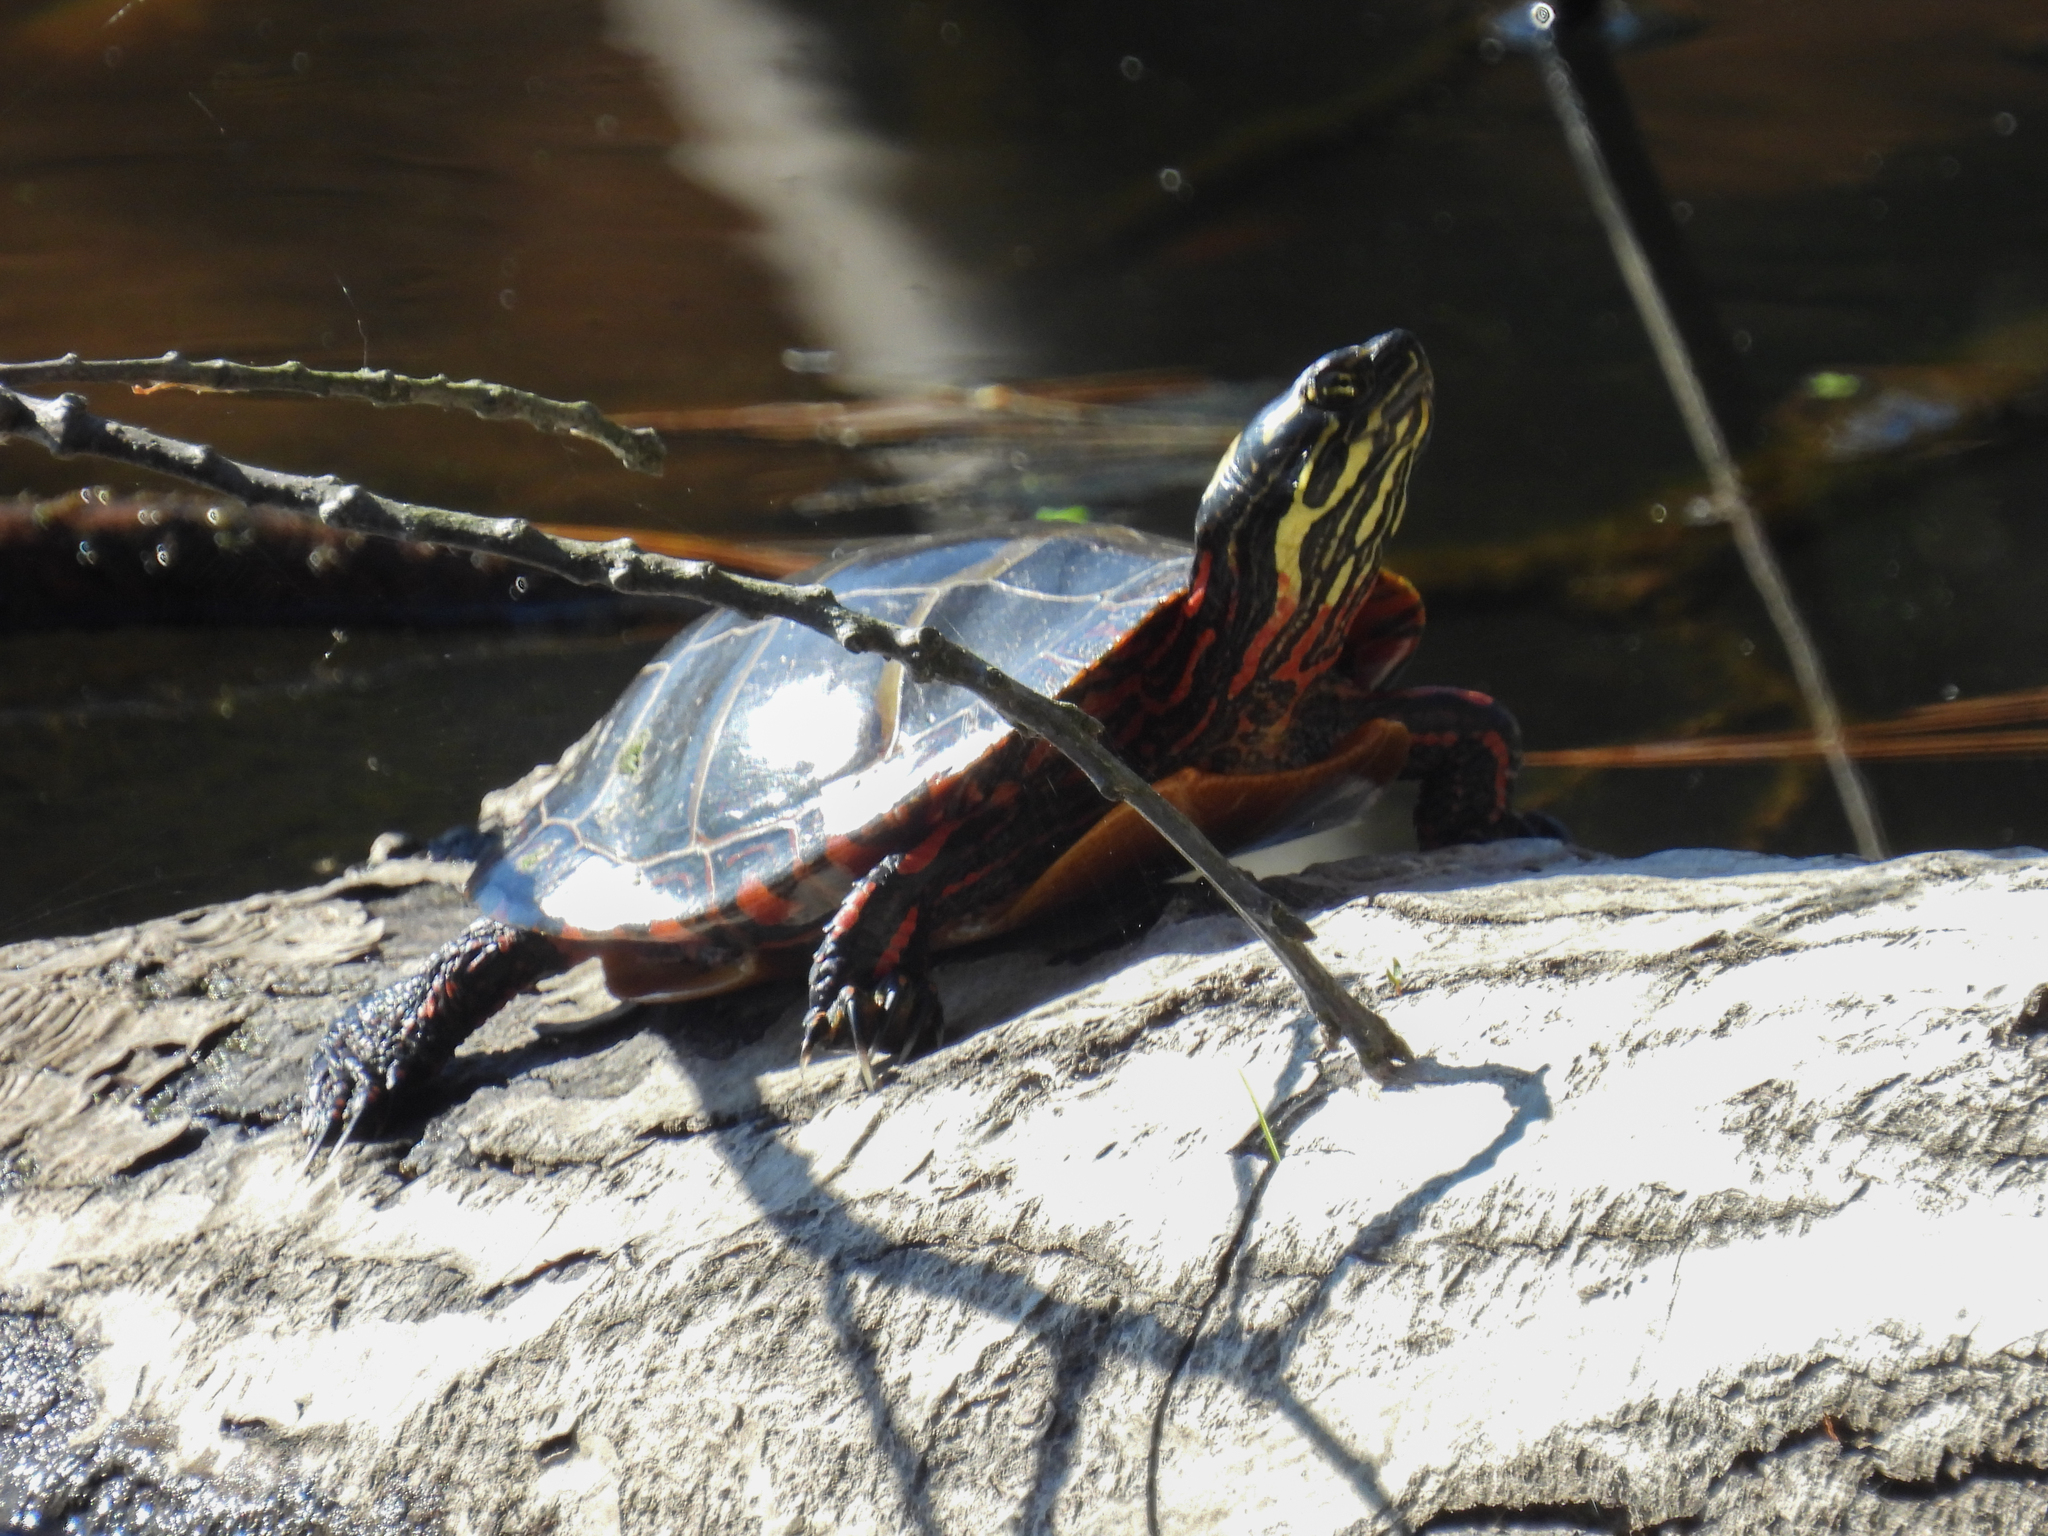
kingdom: Animalia
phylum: Chordata
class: Testudines
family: Emydidae
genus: Chrysemys
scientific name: Chrysemys picta
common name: Painted turtle
